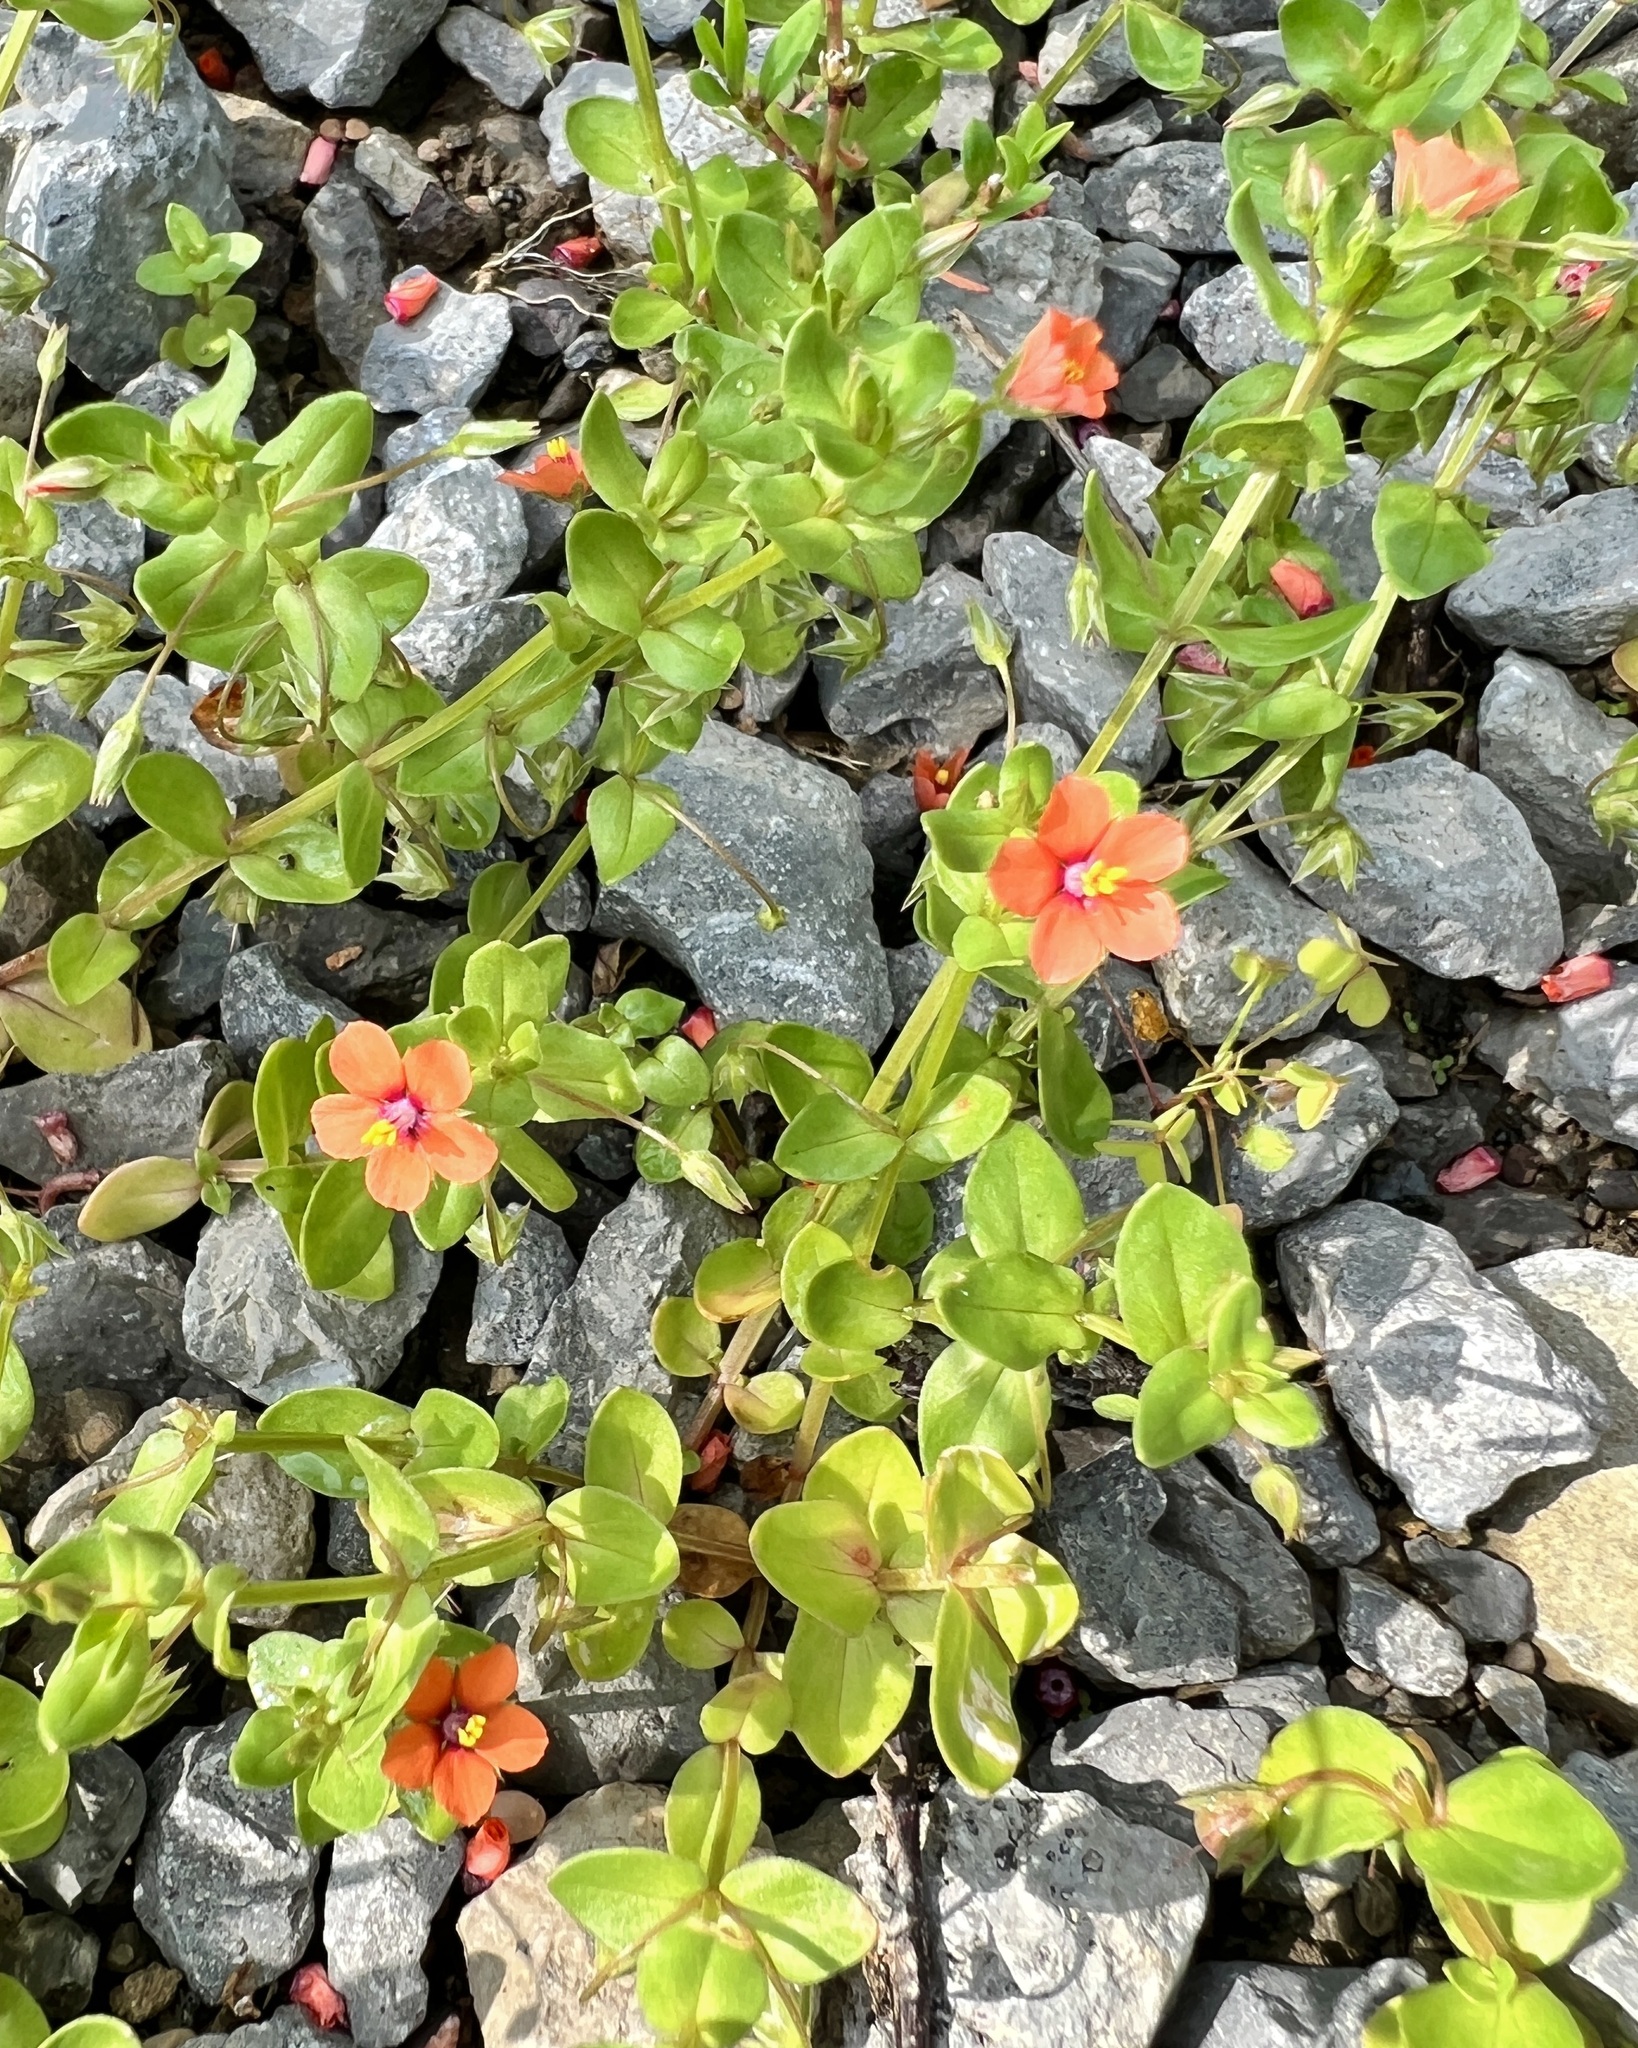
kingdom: Plantae
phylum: Tracheophyta
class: Magnoliopsida
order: Ericales
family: Primulaceae
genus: Lysimachia
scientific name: Lysimachia arvensis
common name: Scarlet pimpernel
